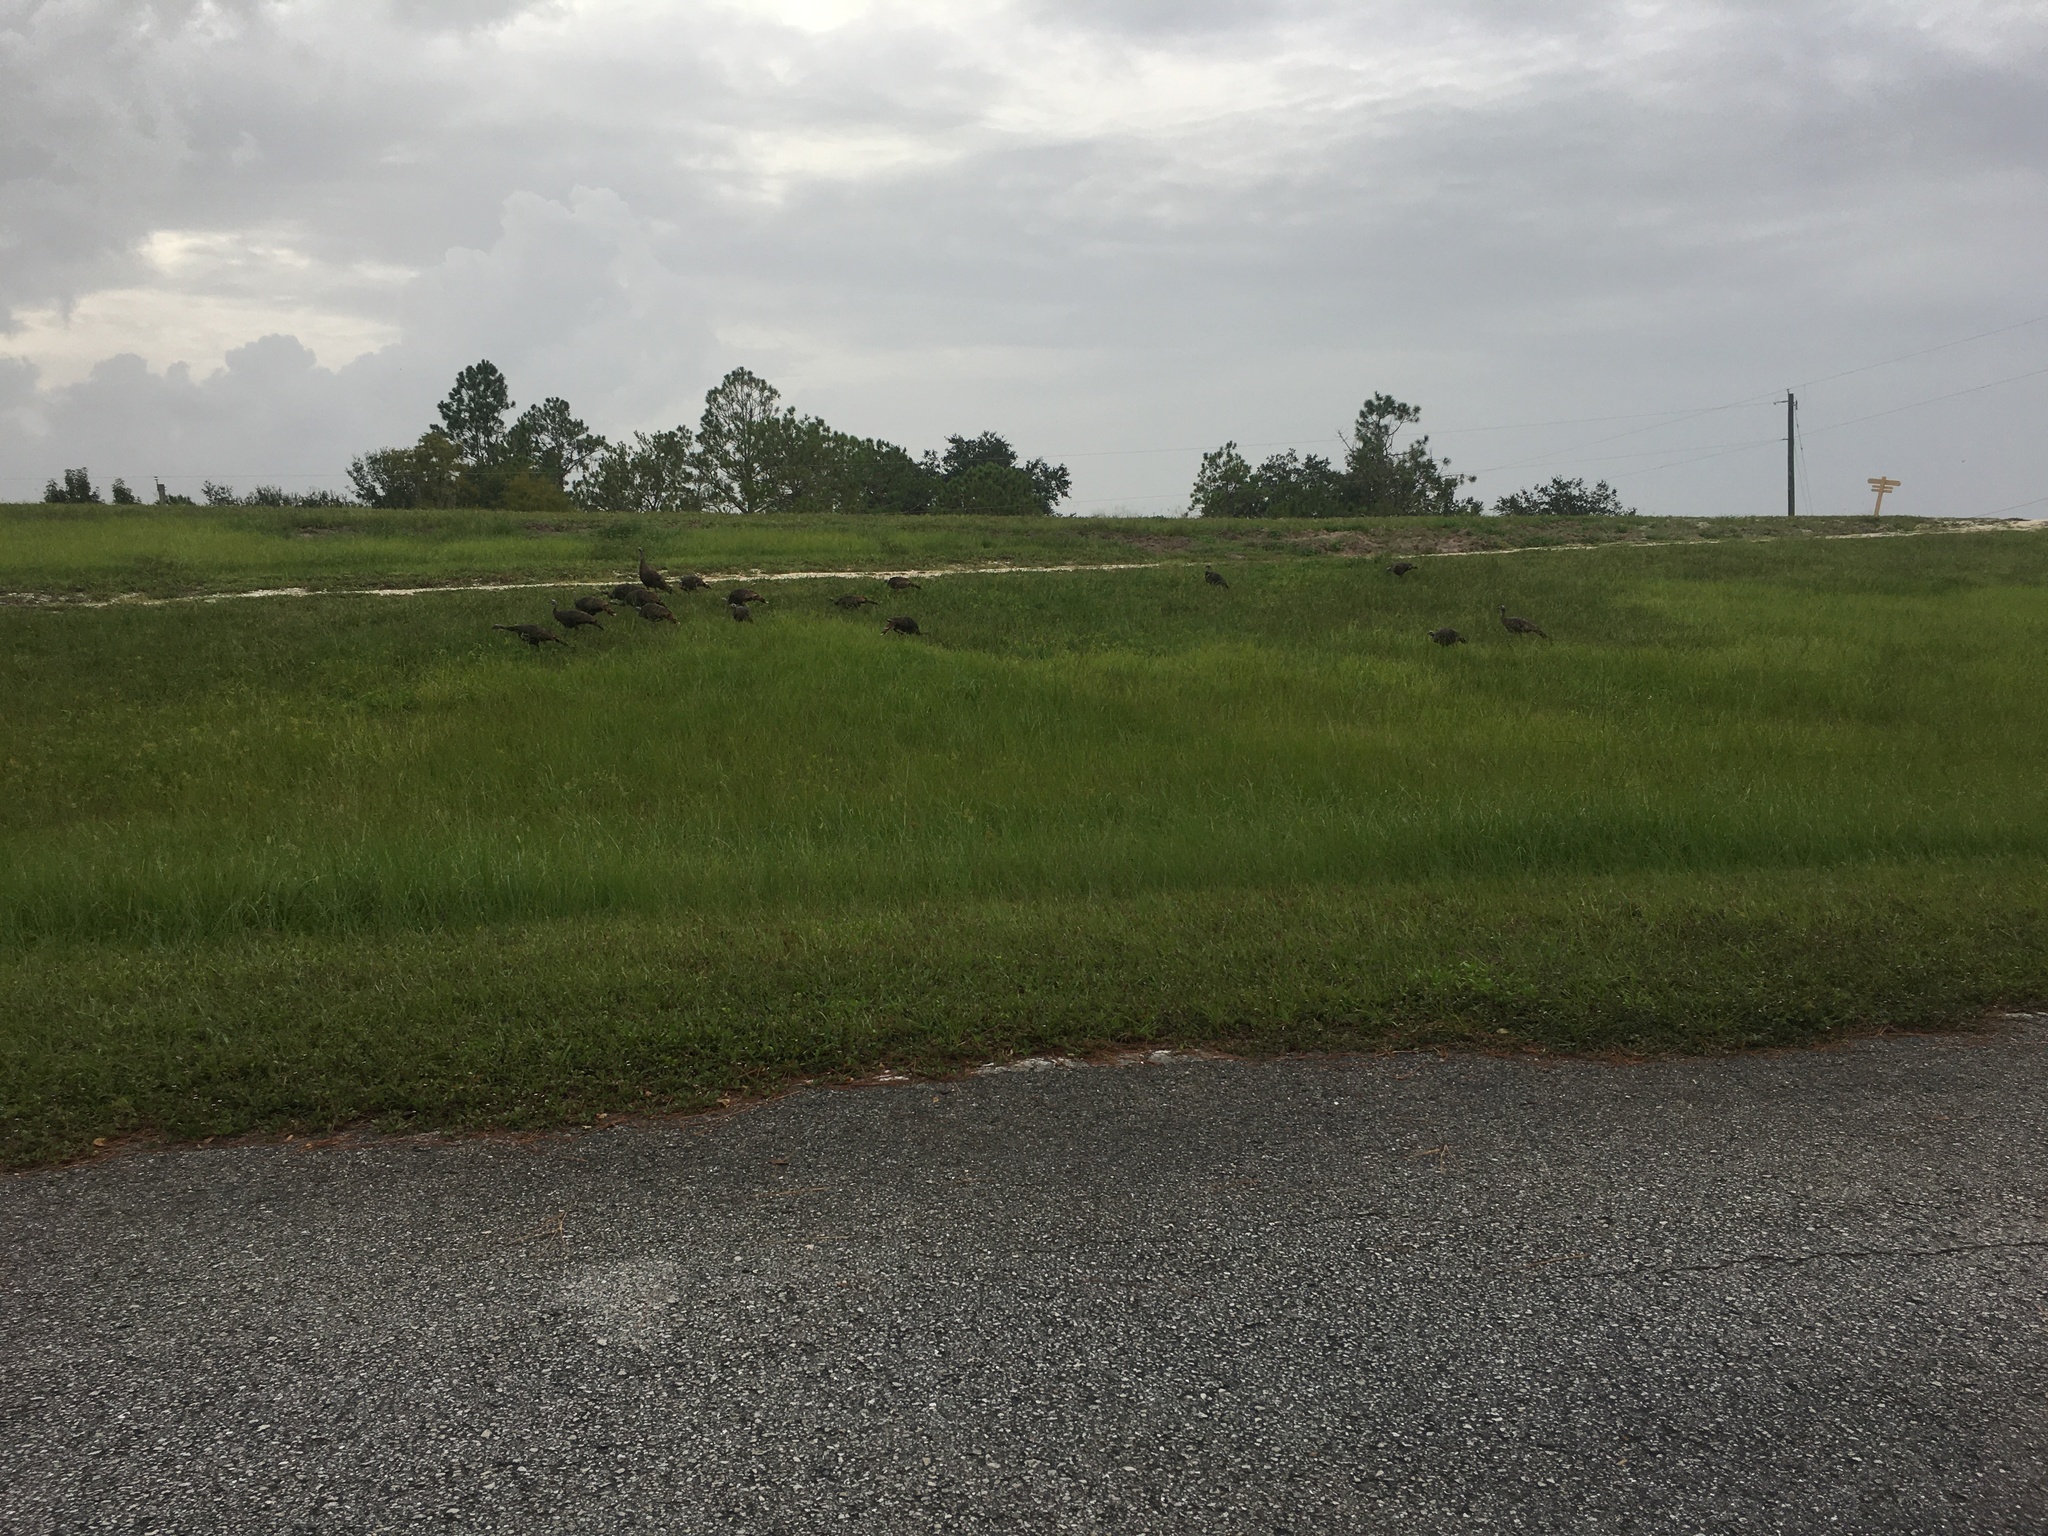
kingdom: Animalia
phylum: Chordata
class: Aves
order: Galliformes
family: Phasianidae
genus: Meleagris
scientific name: Meleagris gallopavo
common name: Wild turkey
